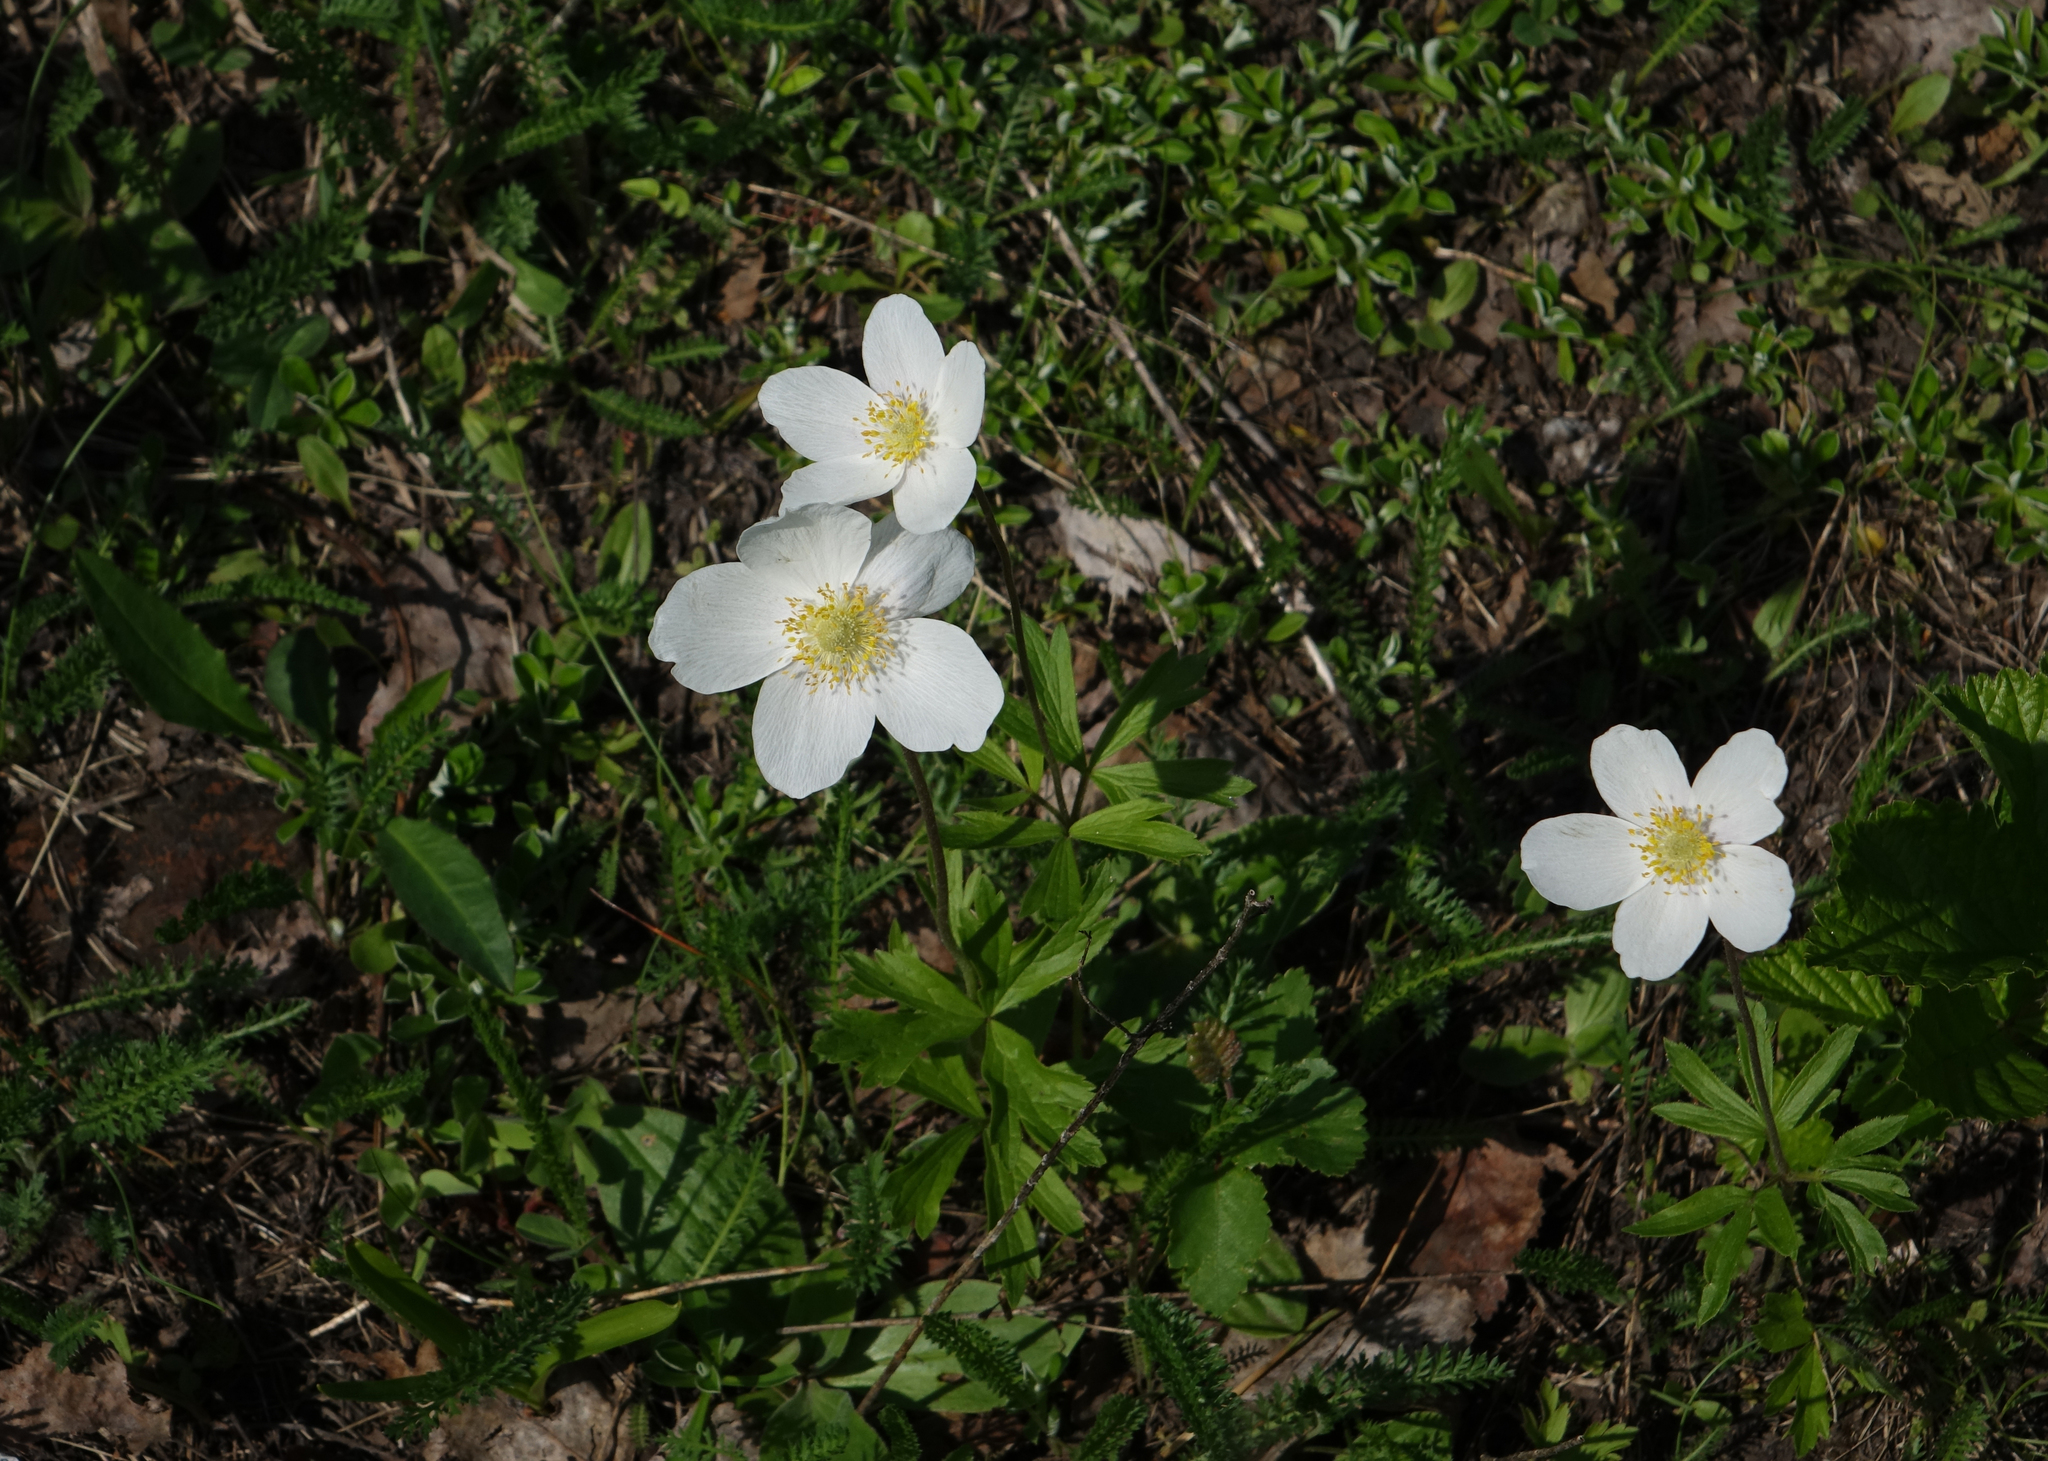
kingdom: Plantae
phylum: Tracheophyta
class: Magnoliopsida
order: Ranunculales
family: Ranunculaceae
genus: Anemone
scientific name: Anemone sylvestris
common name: Snowdrop anemone
